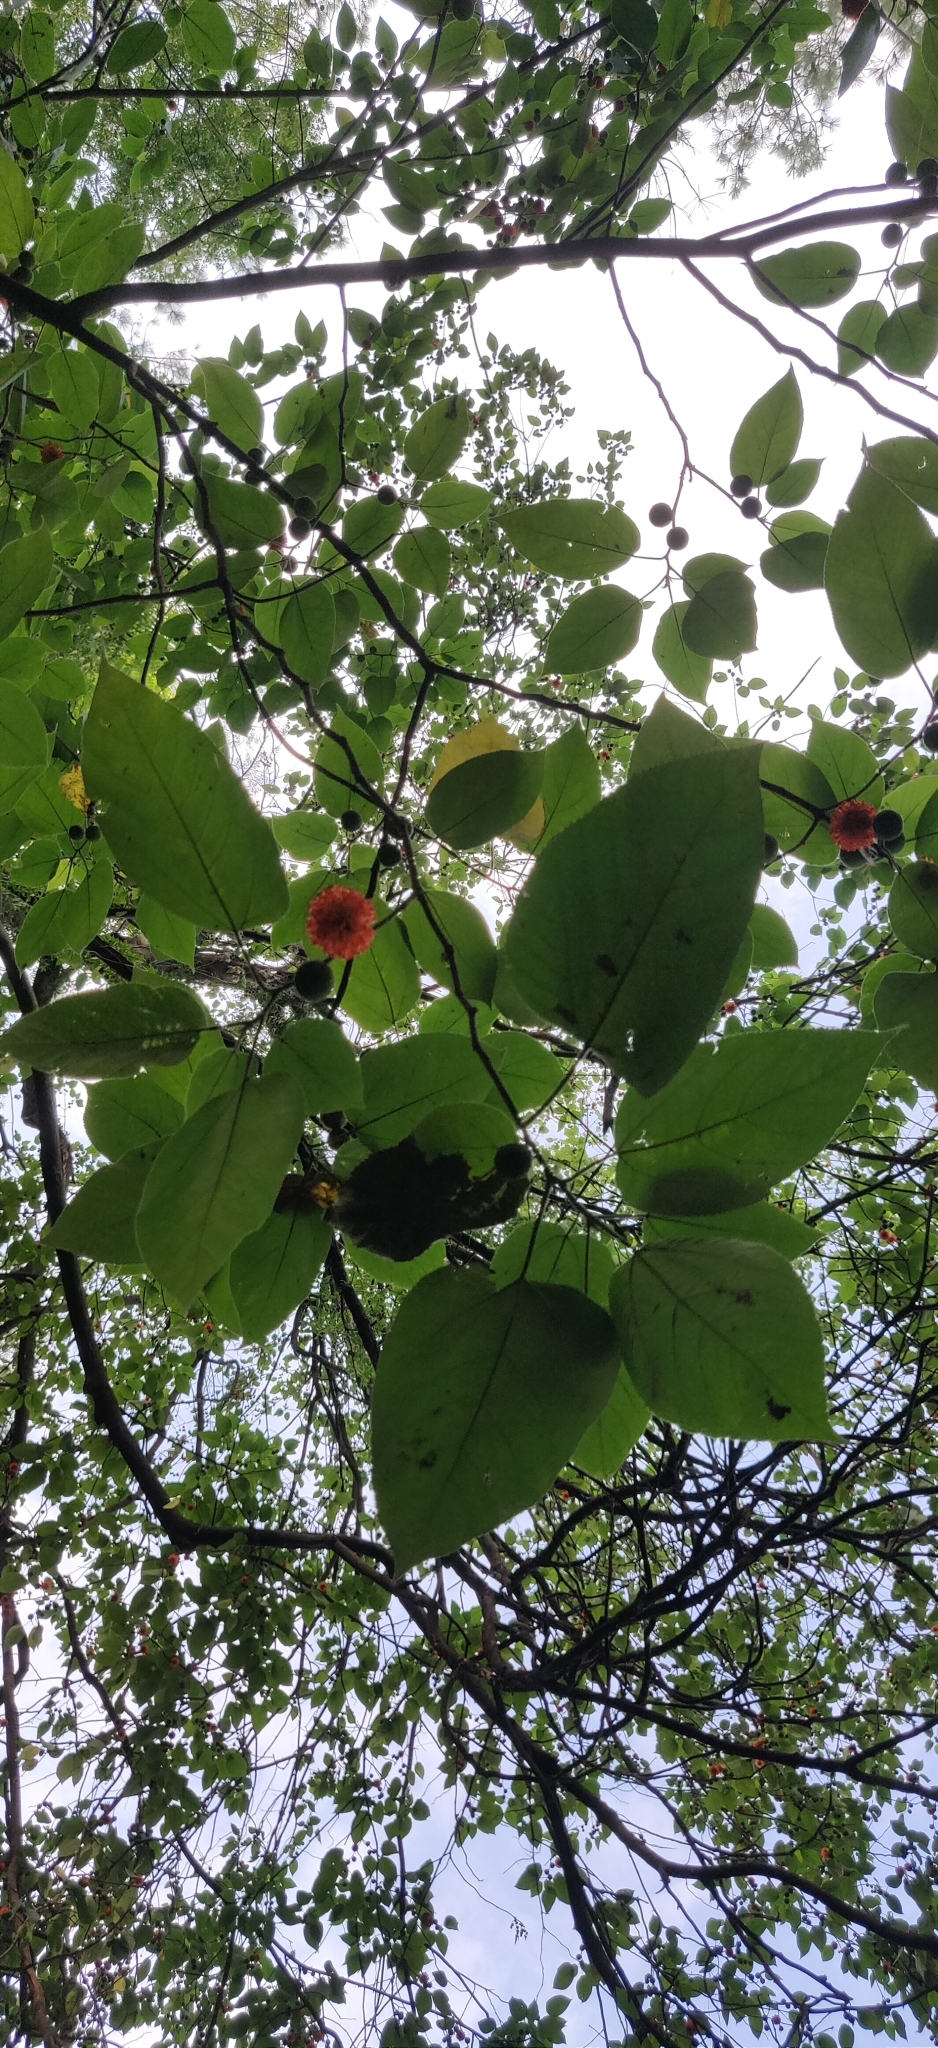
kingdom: Plantae
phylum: Tracheophyta
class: Magnoliopsida
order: Rosales
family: Moraceae
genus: Broussonetia
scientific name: Broussonetia papyrifera
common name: Paper mulberry
